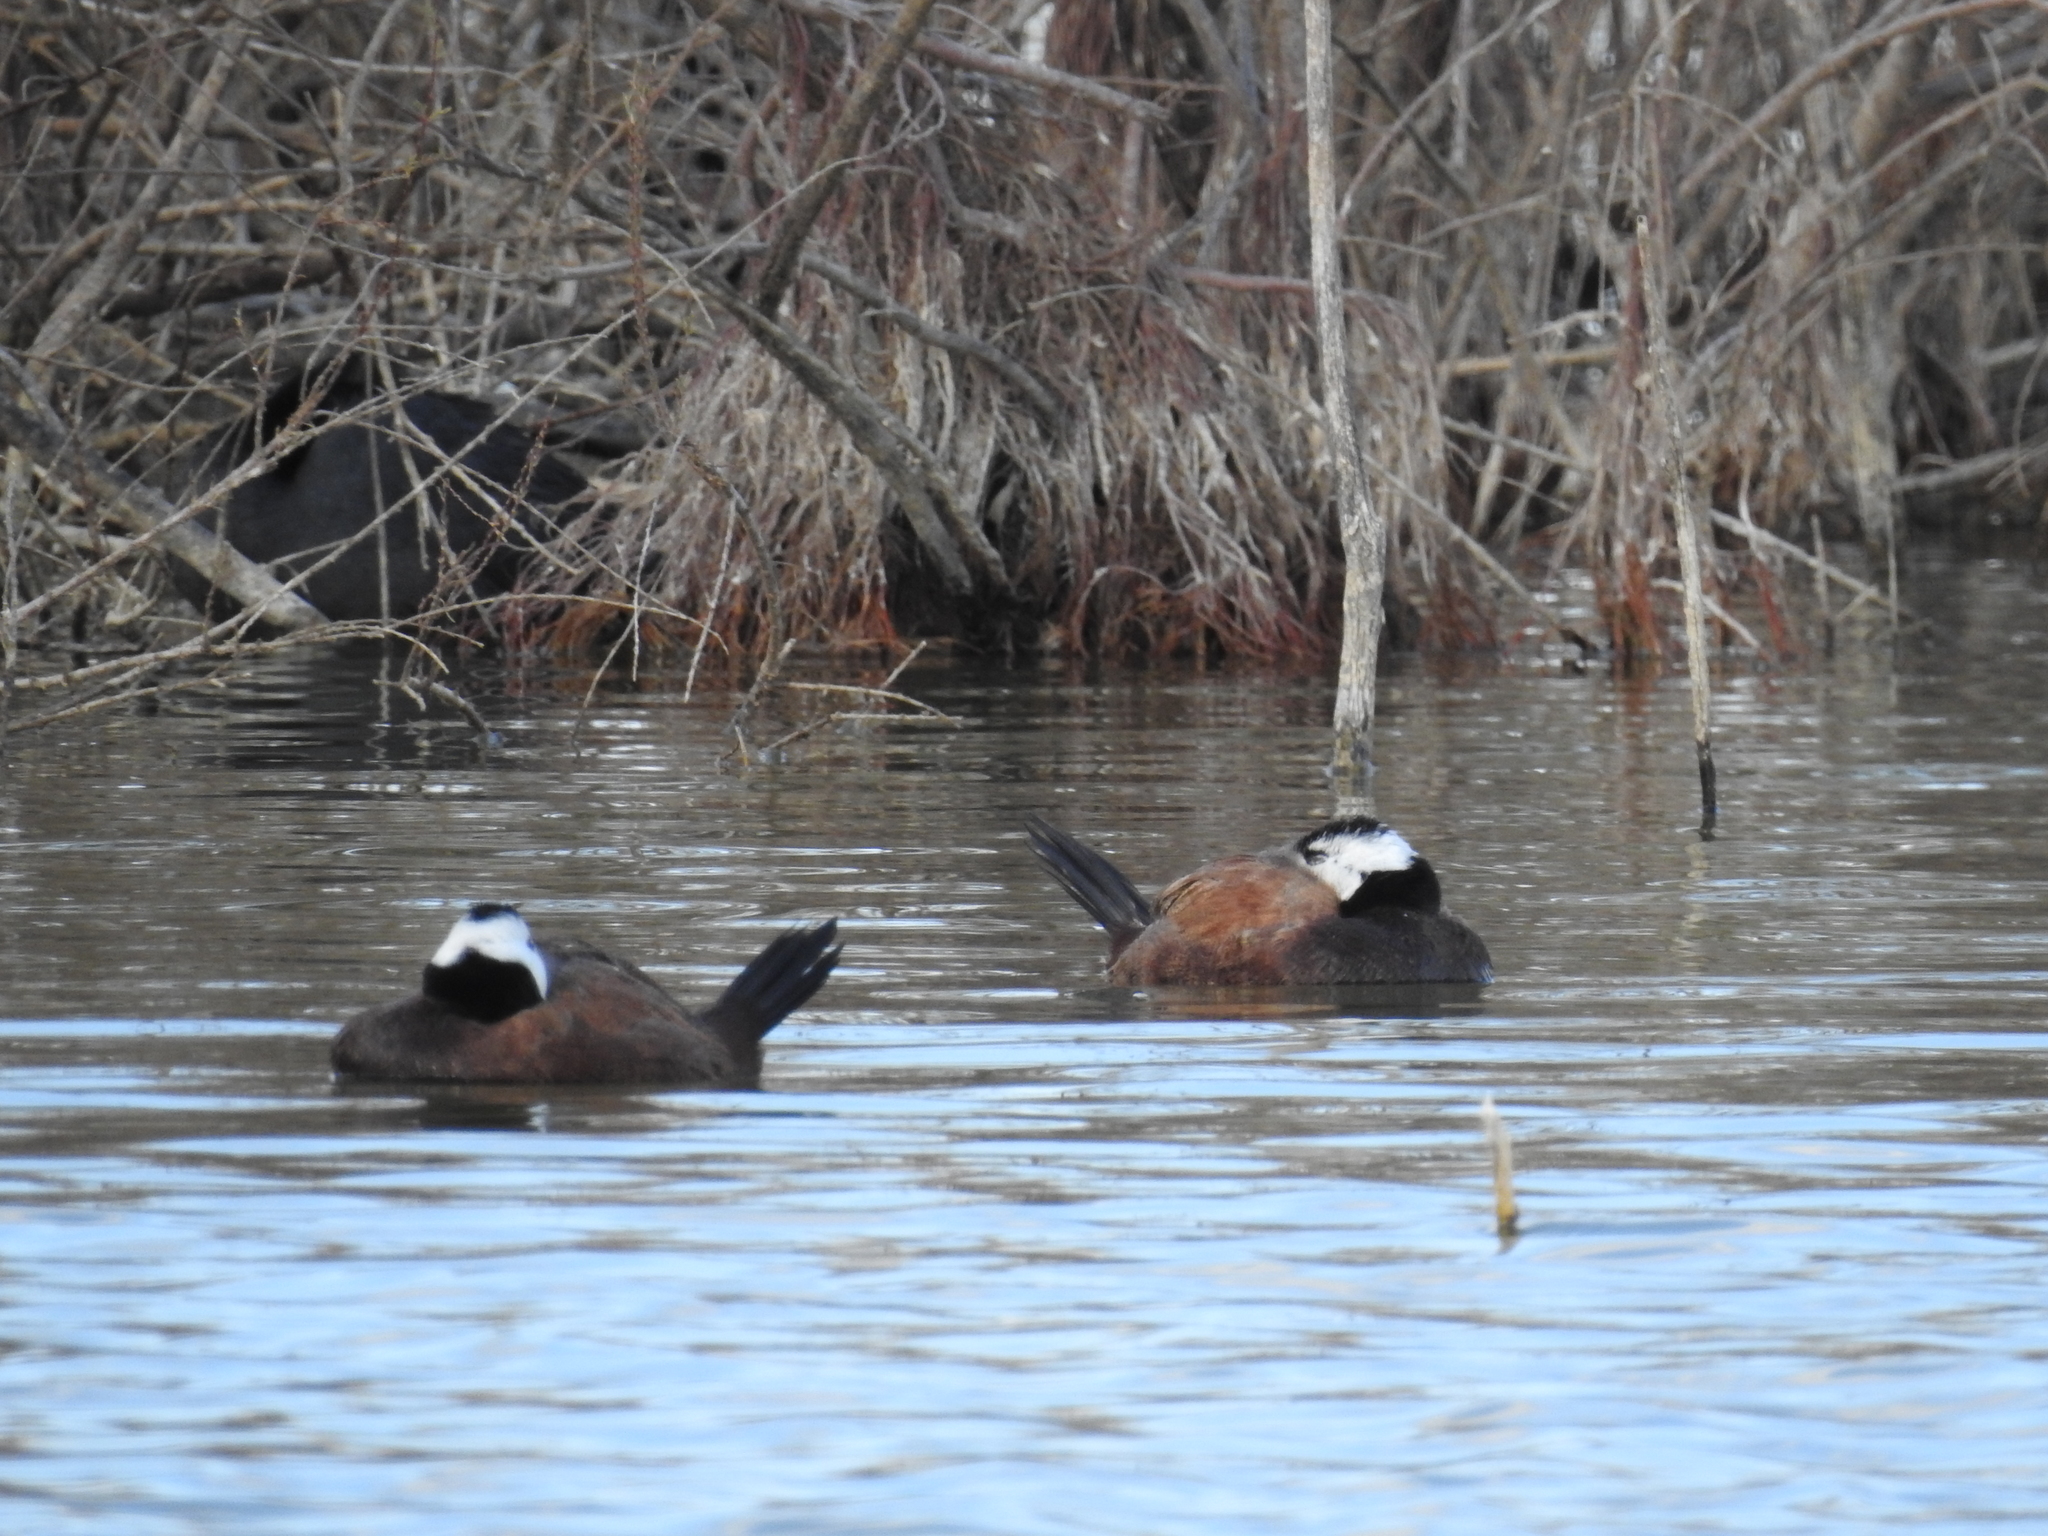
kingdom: Animalia
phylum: Chordata
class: Aves
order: Anseriformes
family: Anatidae
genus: Oxyura
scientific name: Oxyura leucocephala
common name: White-headed duck
